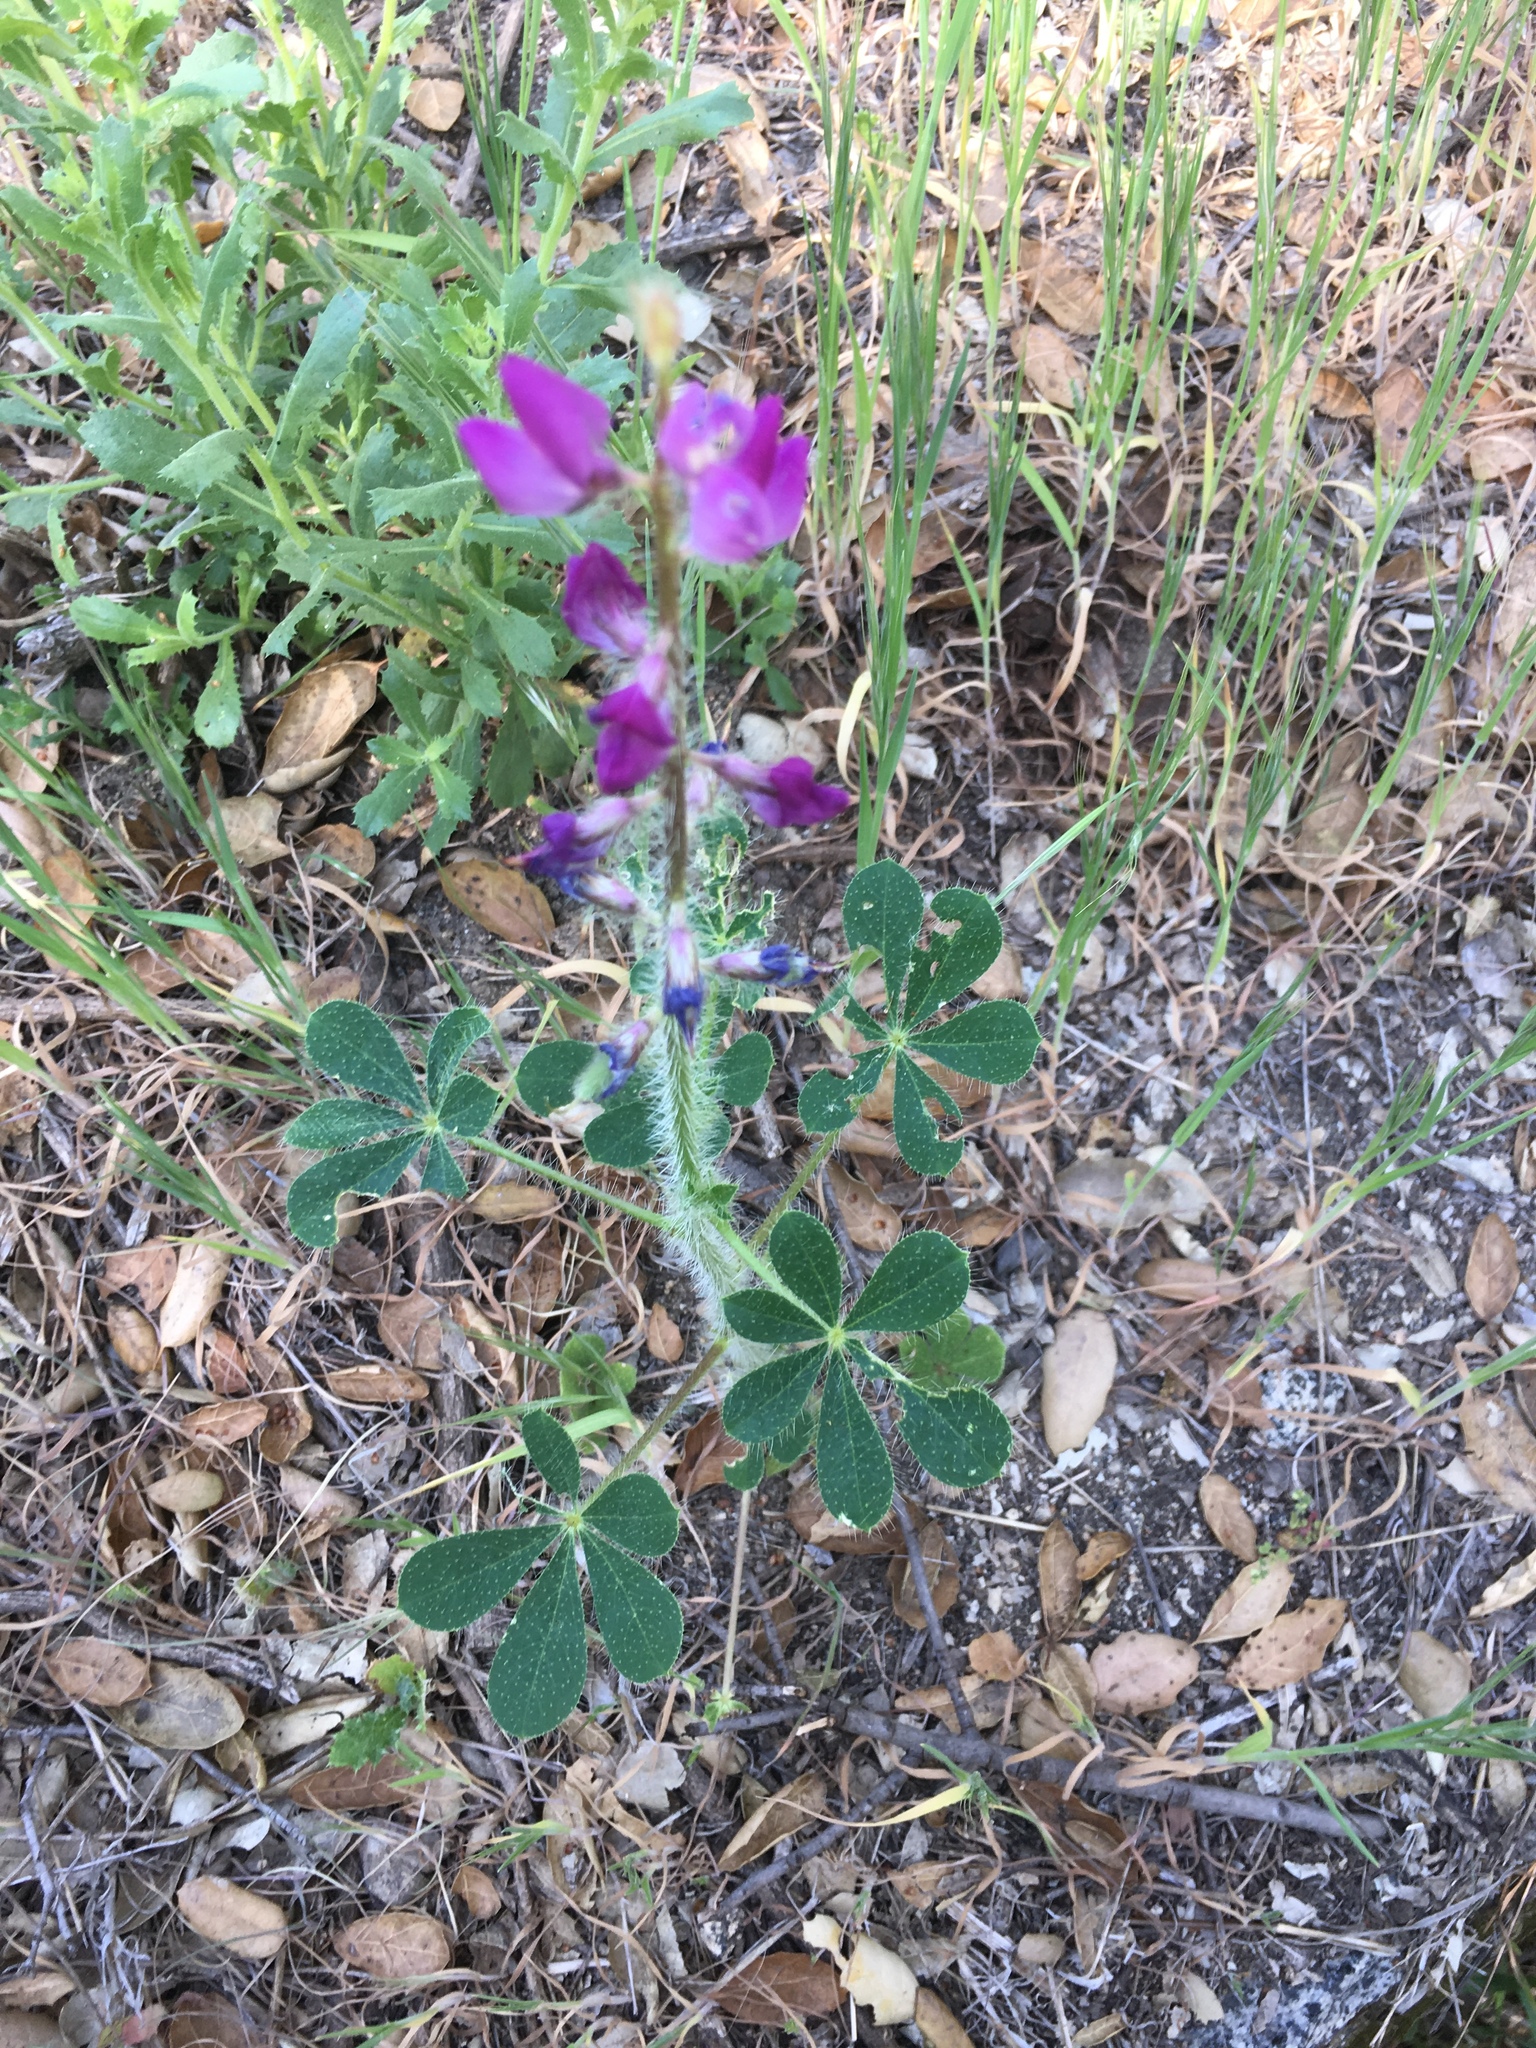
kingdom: Plantae
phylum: Tracheophyta
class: Magnoliopsida
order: Fabales
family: Fabaceae
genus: Lupinus
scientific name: Lupinus hirsutissimus
